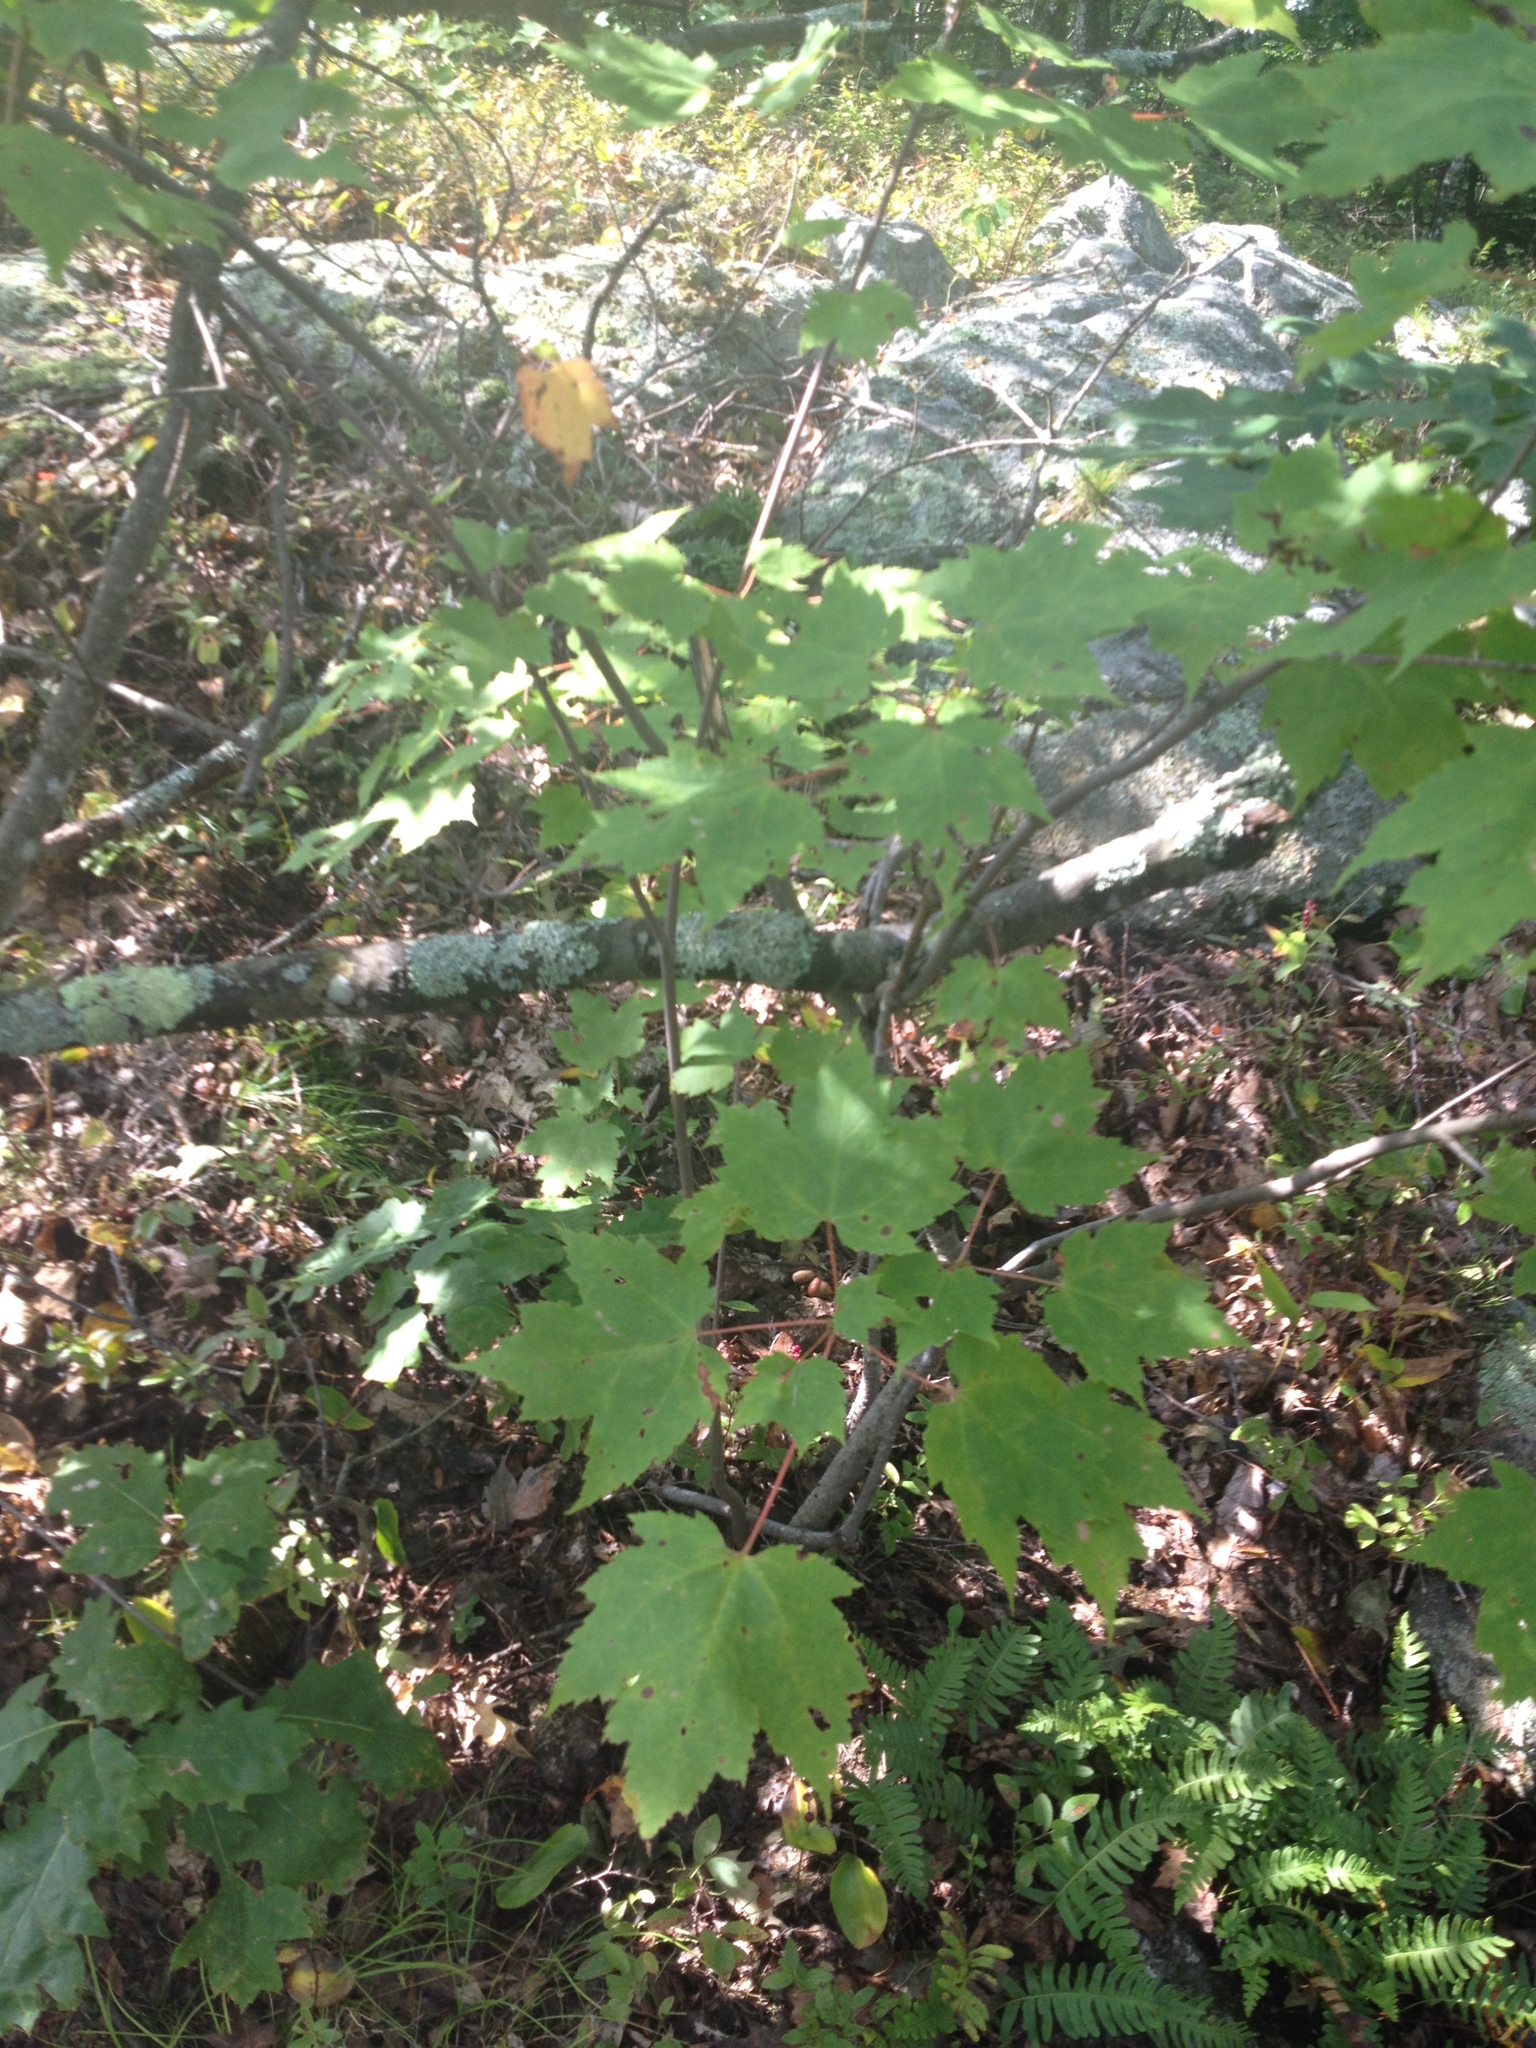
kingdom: Plantae
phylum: Tracheophyta
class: Magnoliopsida
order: Sapindales
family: Sapindaceae
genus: Acer
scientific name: Acer rubrum
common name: Red maple
